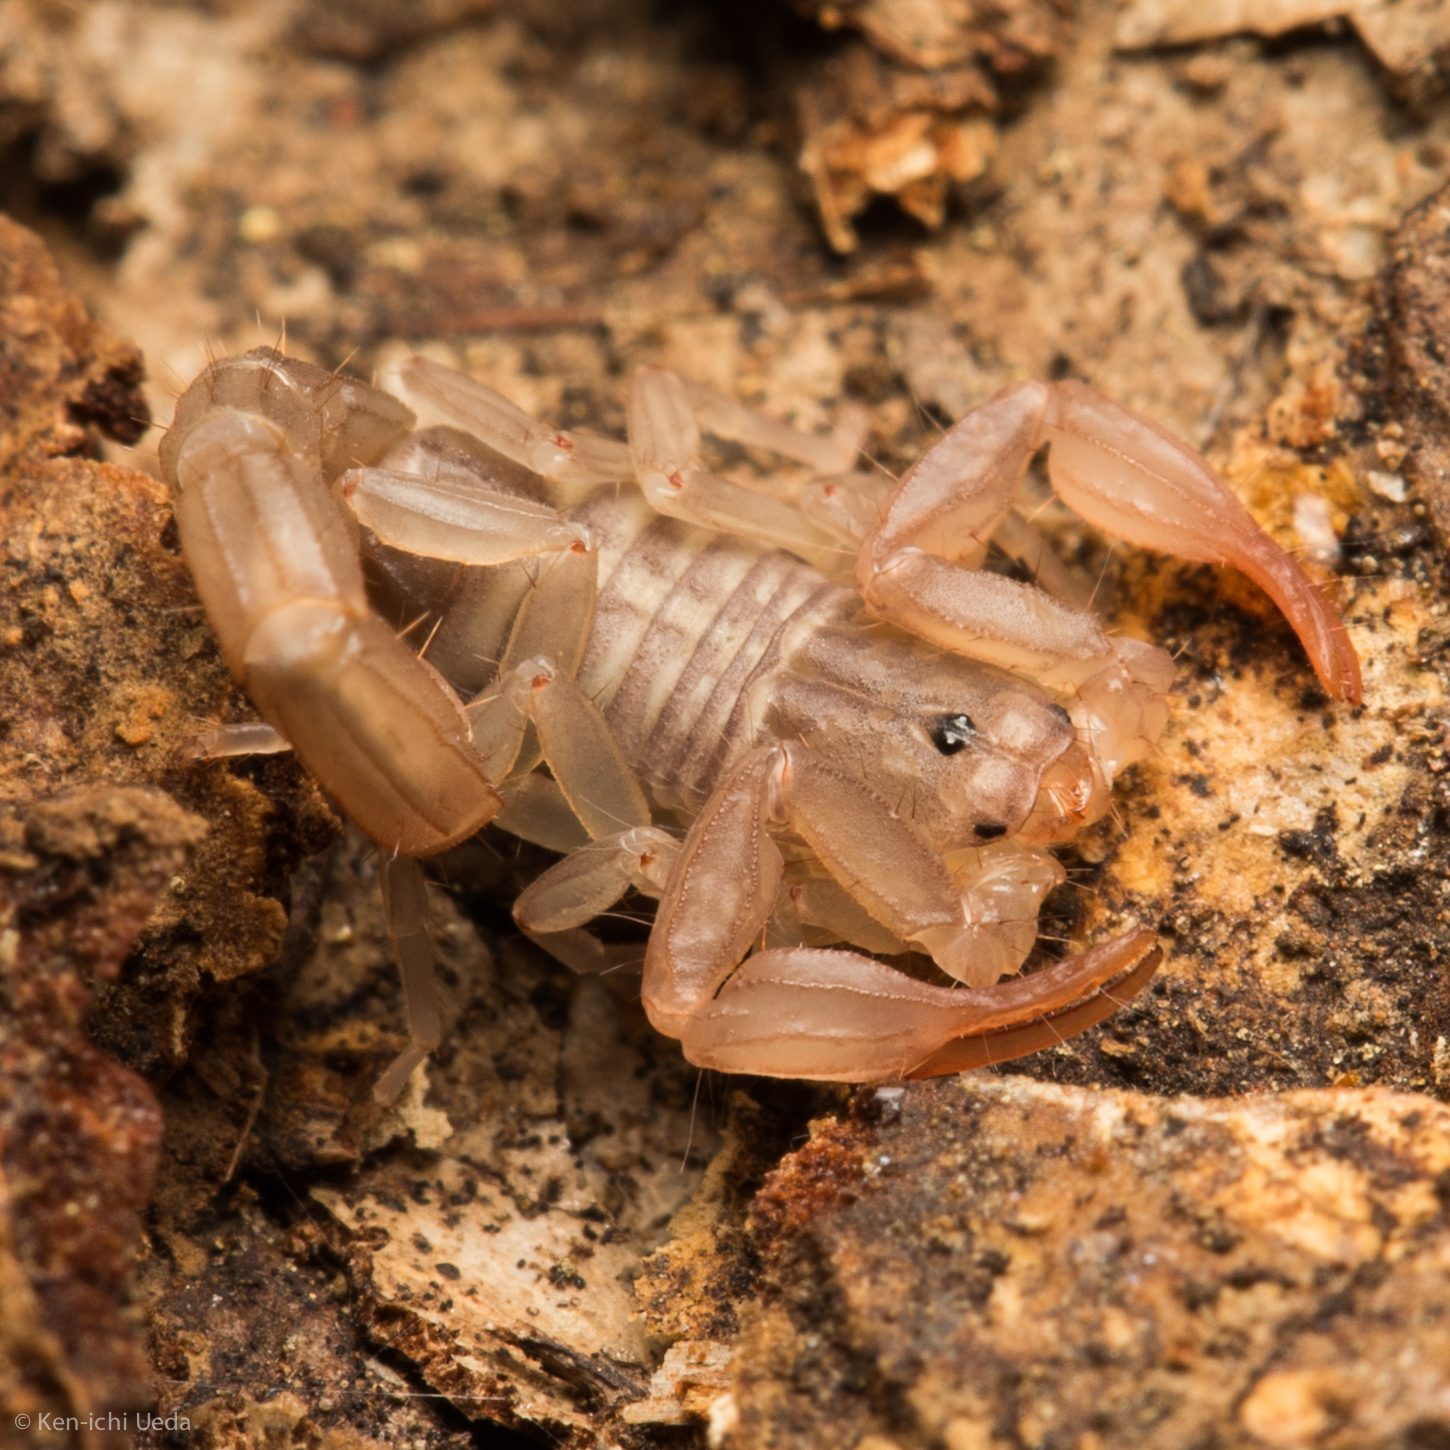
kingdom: Animalia
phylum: Arthropoda
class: Arachnida
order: Scorpiones
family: Vaejovidae
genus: Graemeloweus
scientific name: Graemeloweus iviei
